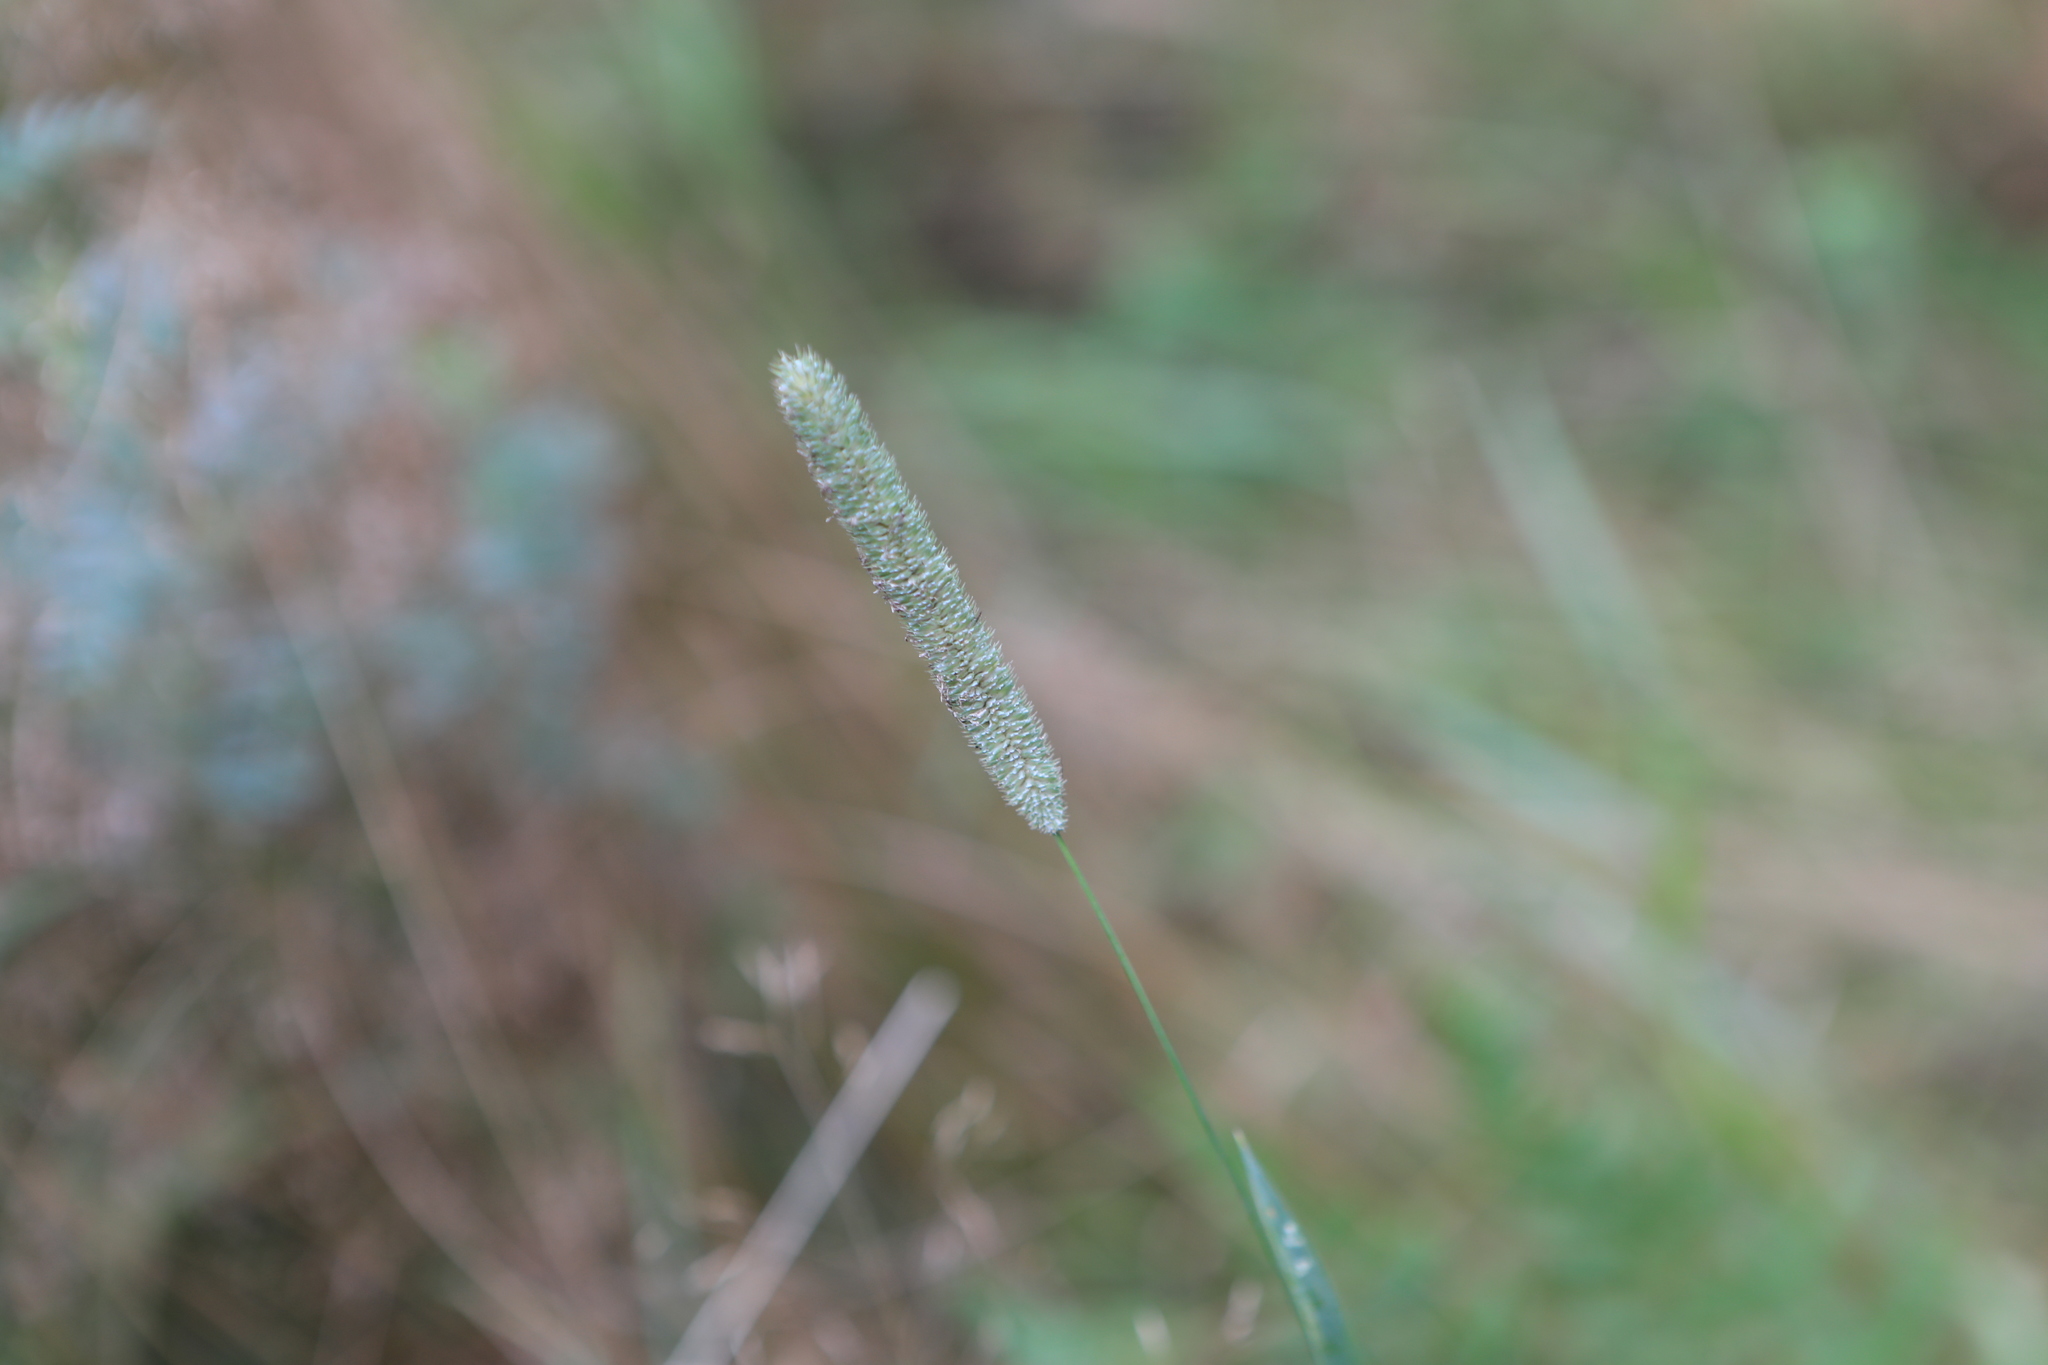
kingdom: Plantae
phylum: Tracheophyta
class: Liliopsida
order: Poales
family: Poaceae
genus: Phleum
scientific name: Phleum pratense
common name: Timothy grass
